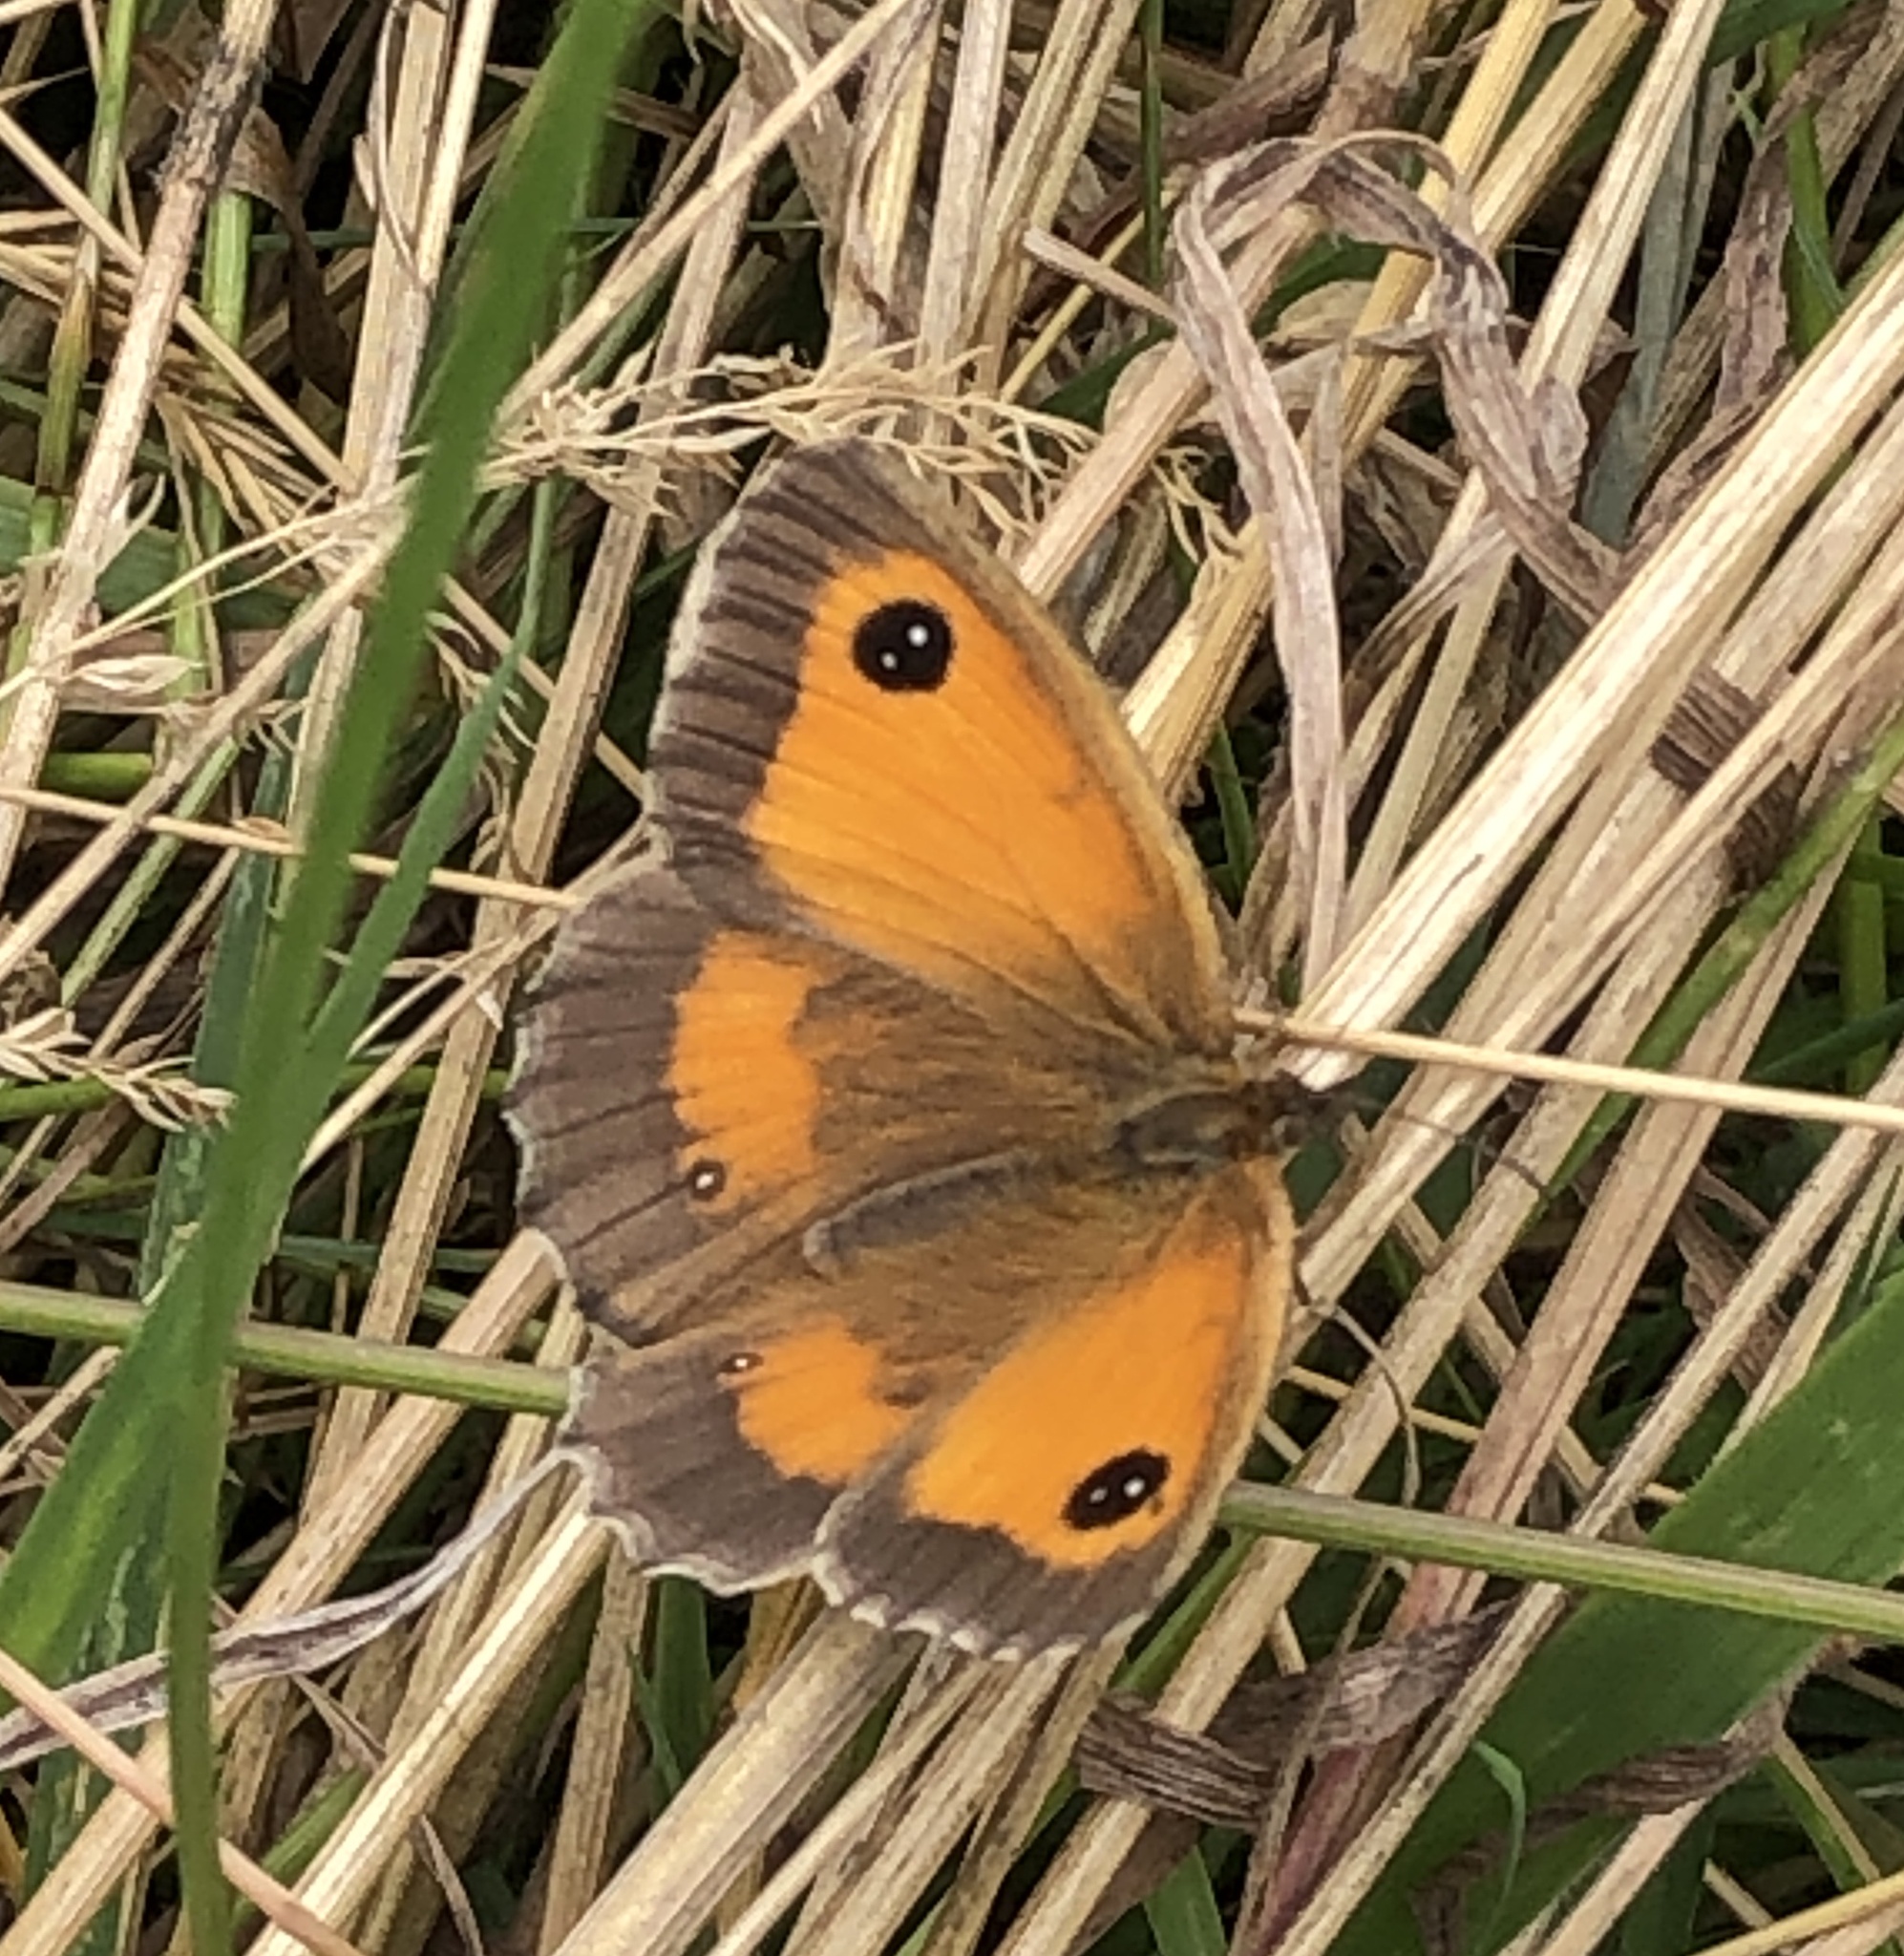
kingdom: Animalia
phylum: Arthropoda
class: Insecta
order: Lepidoptera
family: Nymphalidae
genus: Pyronia
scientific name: Pyronia tithonus
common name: Gatekeeper
